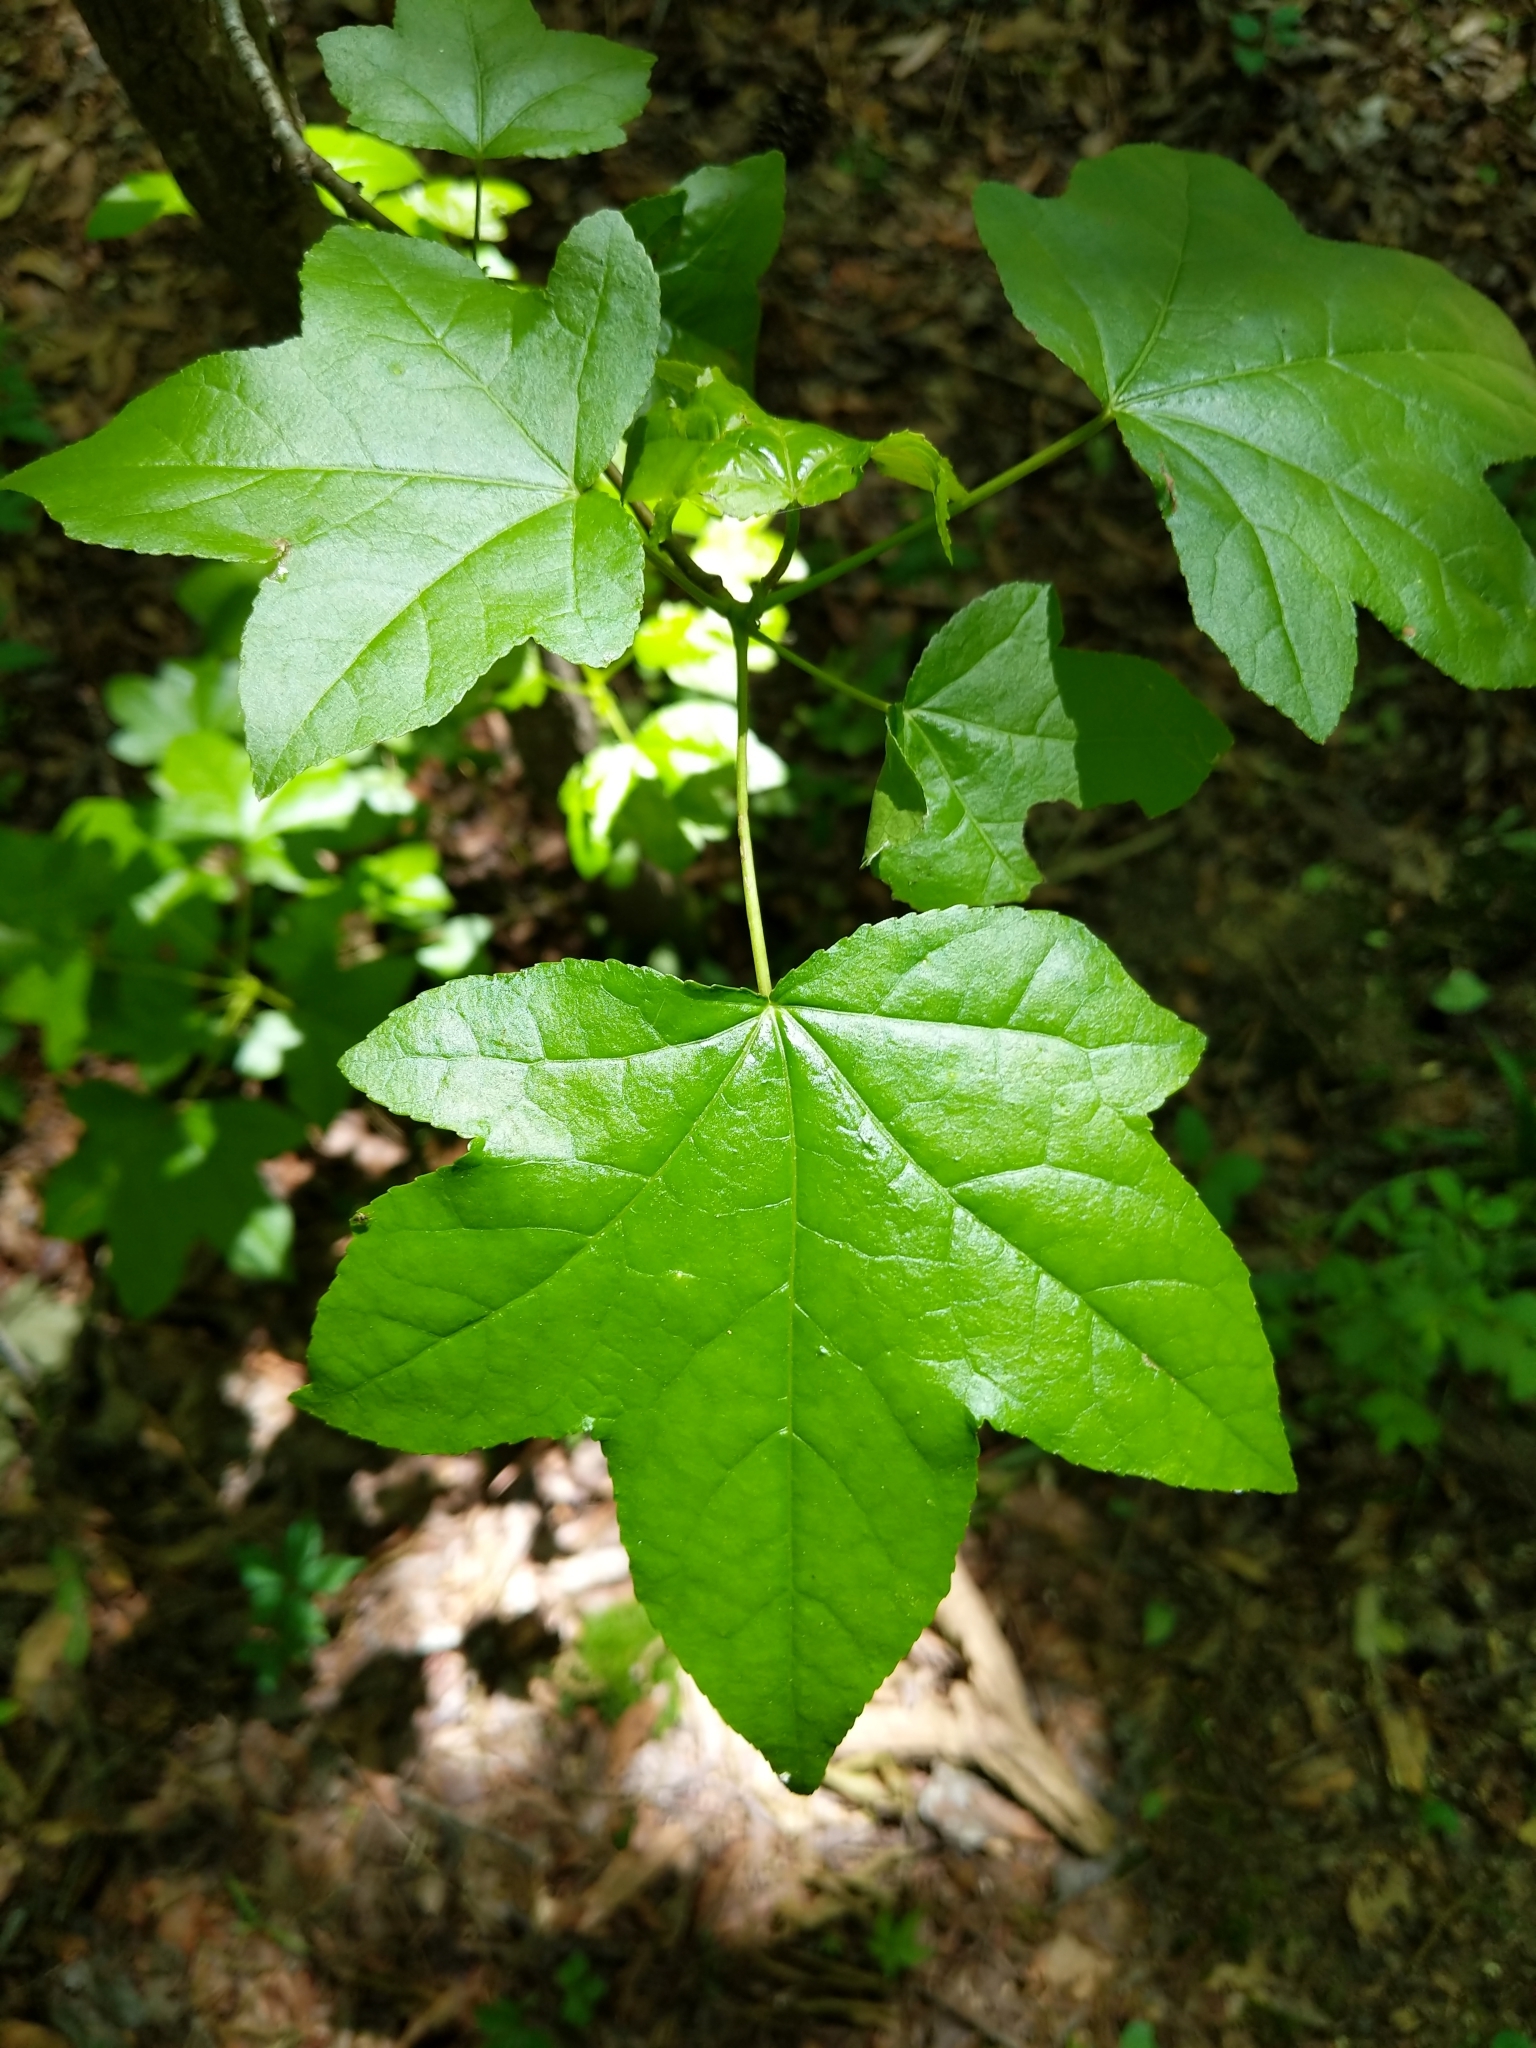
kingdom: Plantae
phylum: Tracheophyta
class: Magnoliopsida
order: Saxifragales
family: Altingiaceae
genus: Liquidambar
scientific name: Liquidambar styraciflua
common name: Sweet gum
